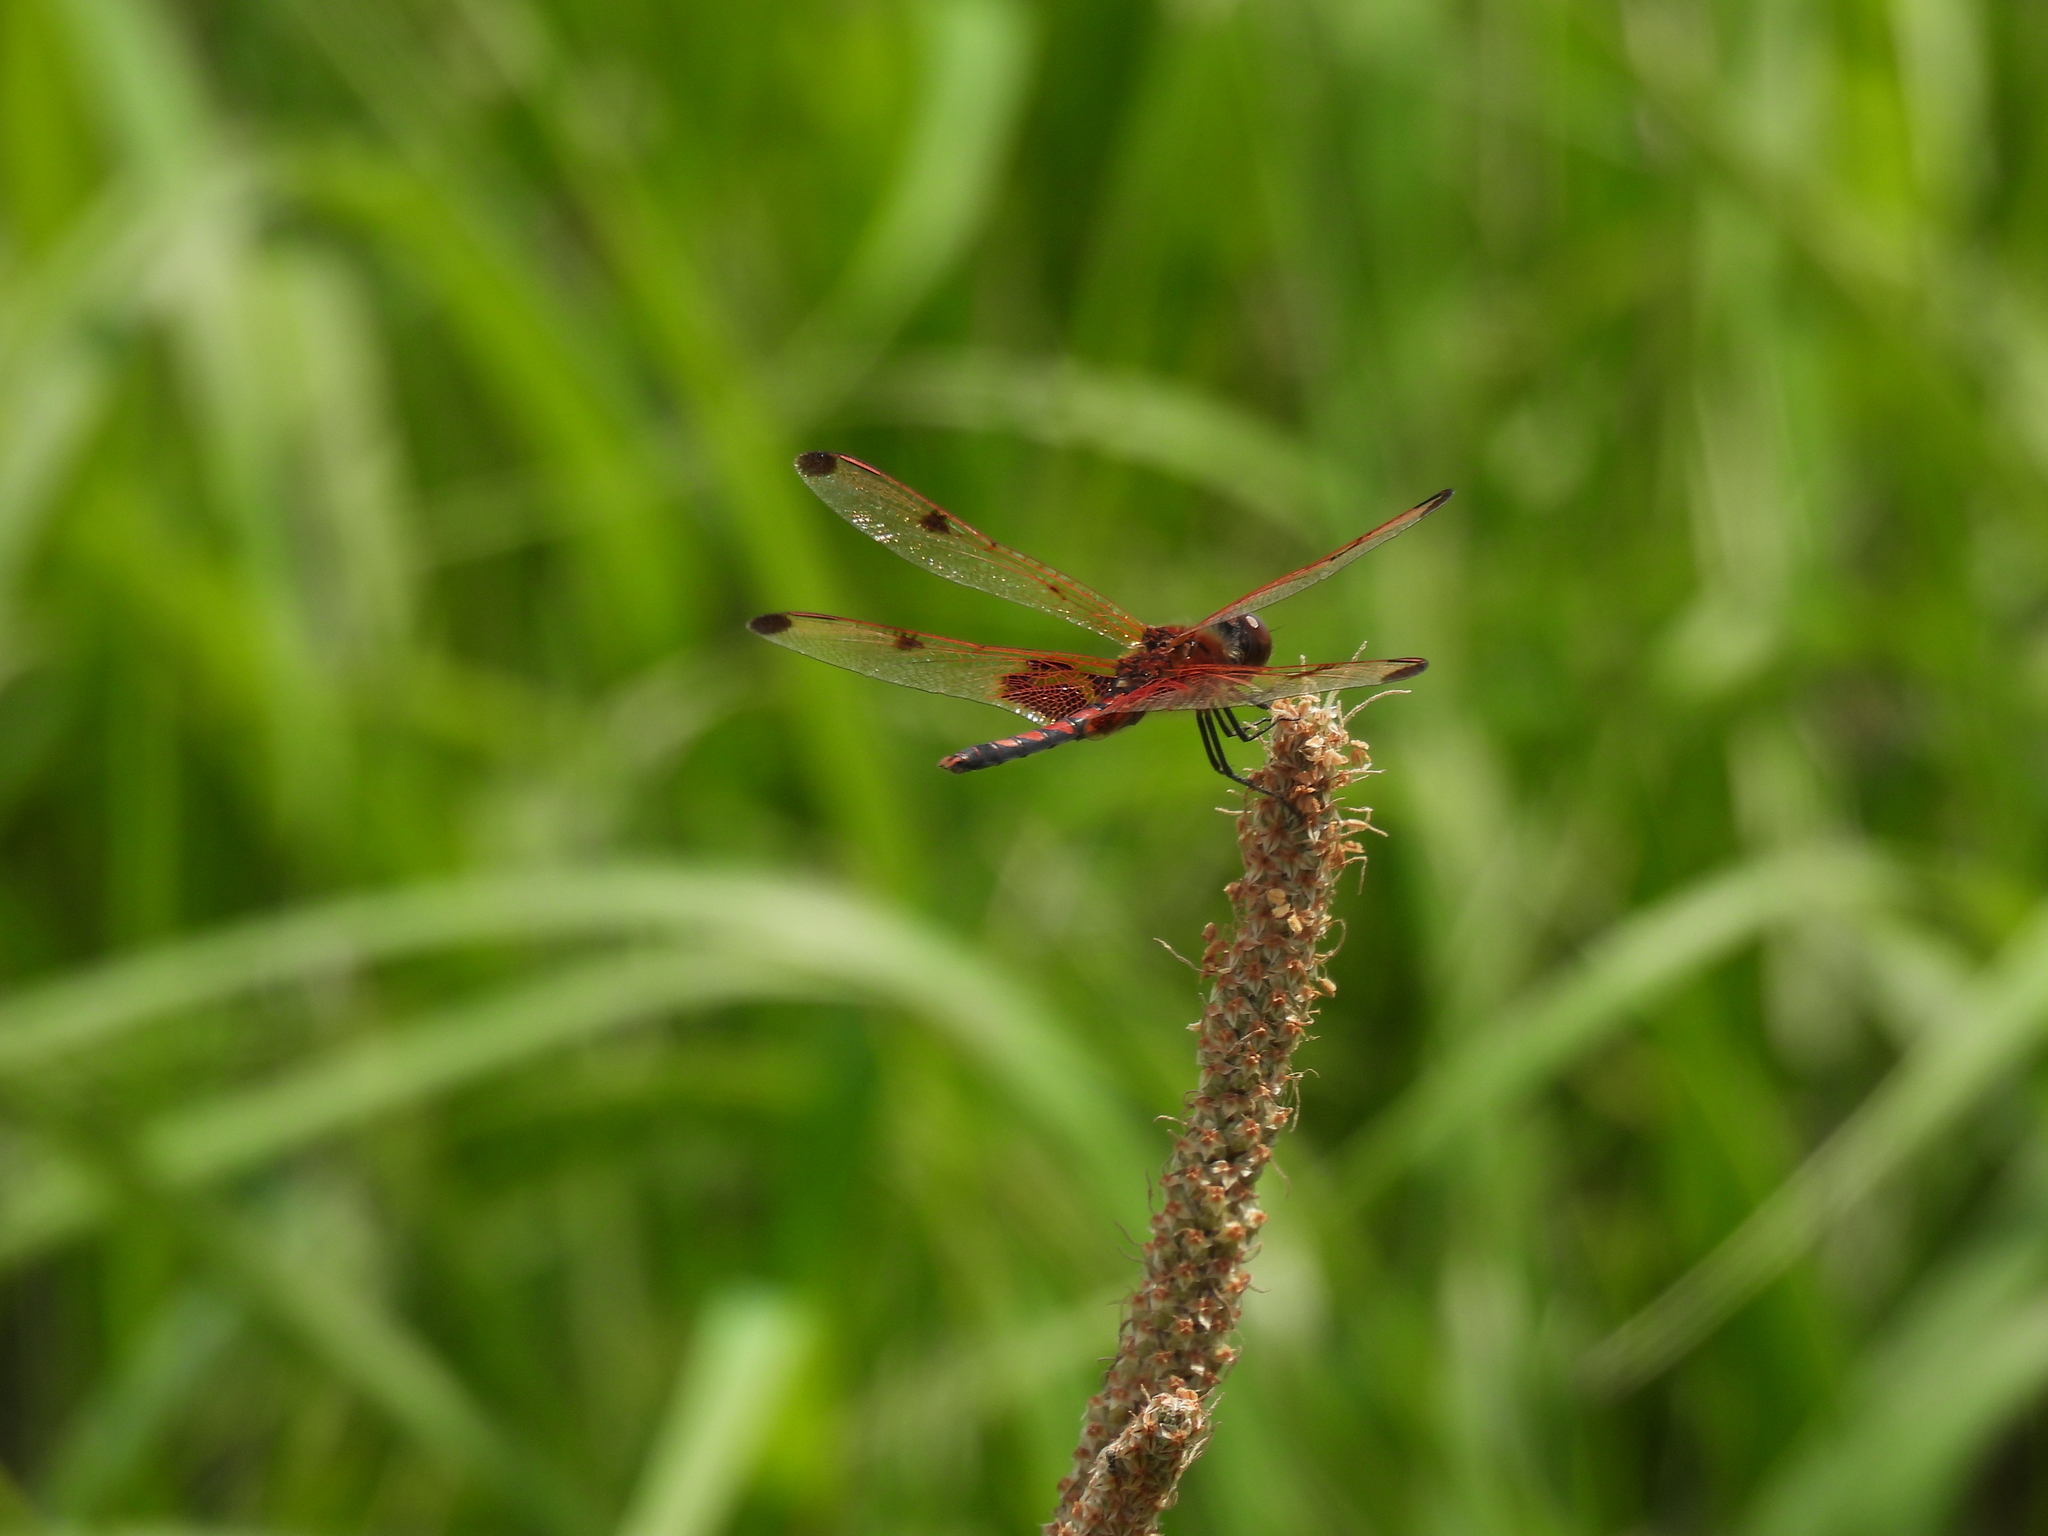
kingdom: Animalia
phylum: Arthropoda
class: Insecta
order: Odonata
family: Libellulidae
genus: Celithemis
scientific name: Celithemis elisa
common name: Calico pennant
